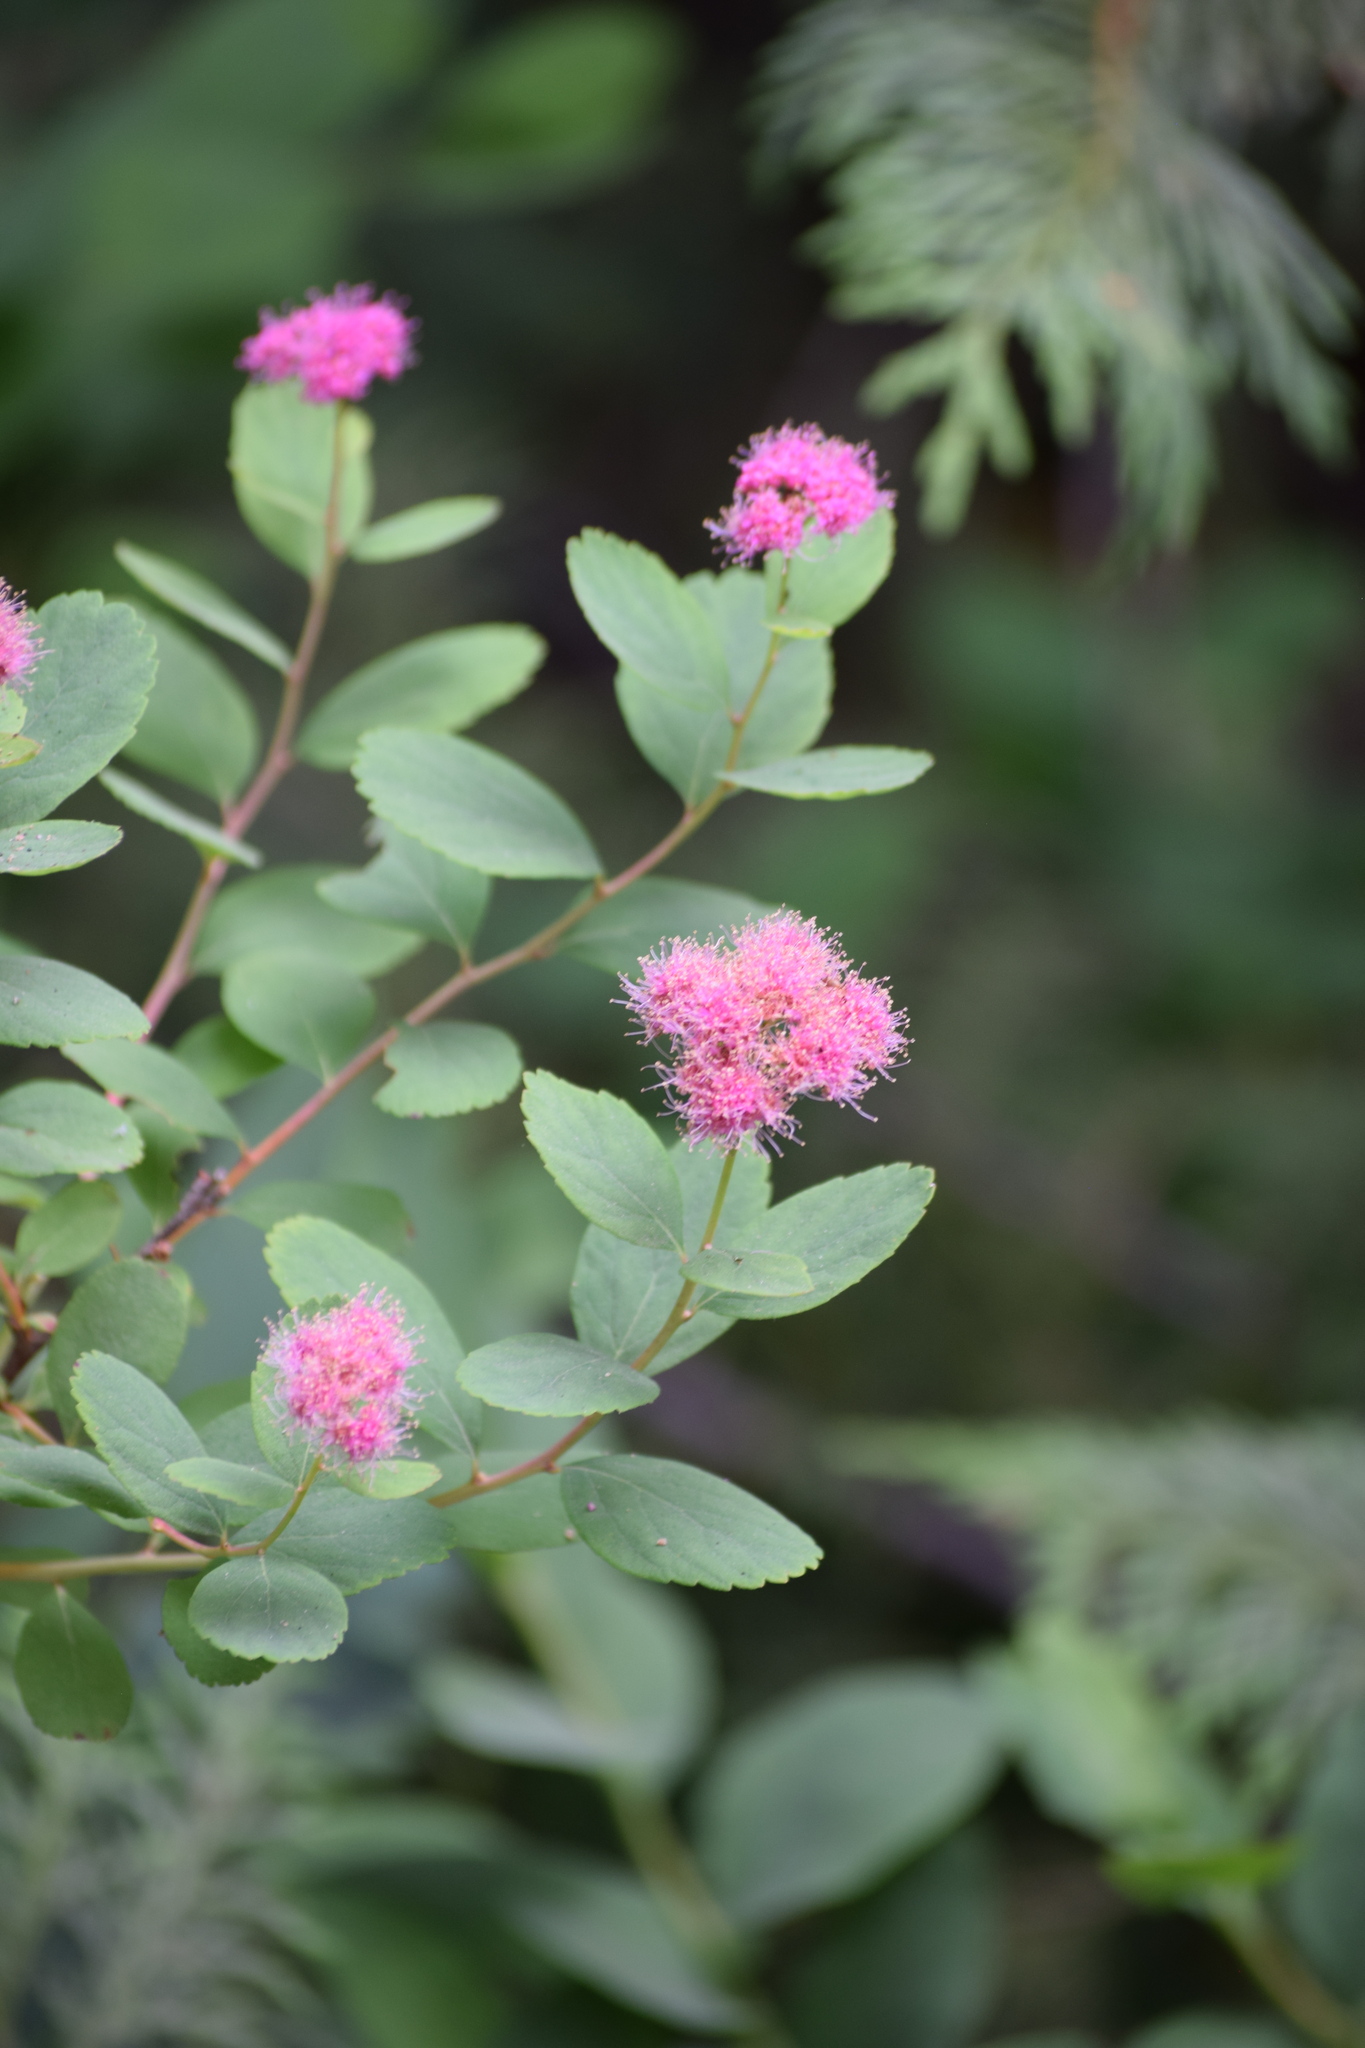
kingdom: Plantae
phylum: Tracheophyta
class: Magnoliopsida
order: Rosales
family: Rosaceae
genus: Spiraea
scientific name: Spiraea splendens
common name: Subalpine meadowsweet
